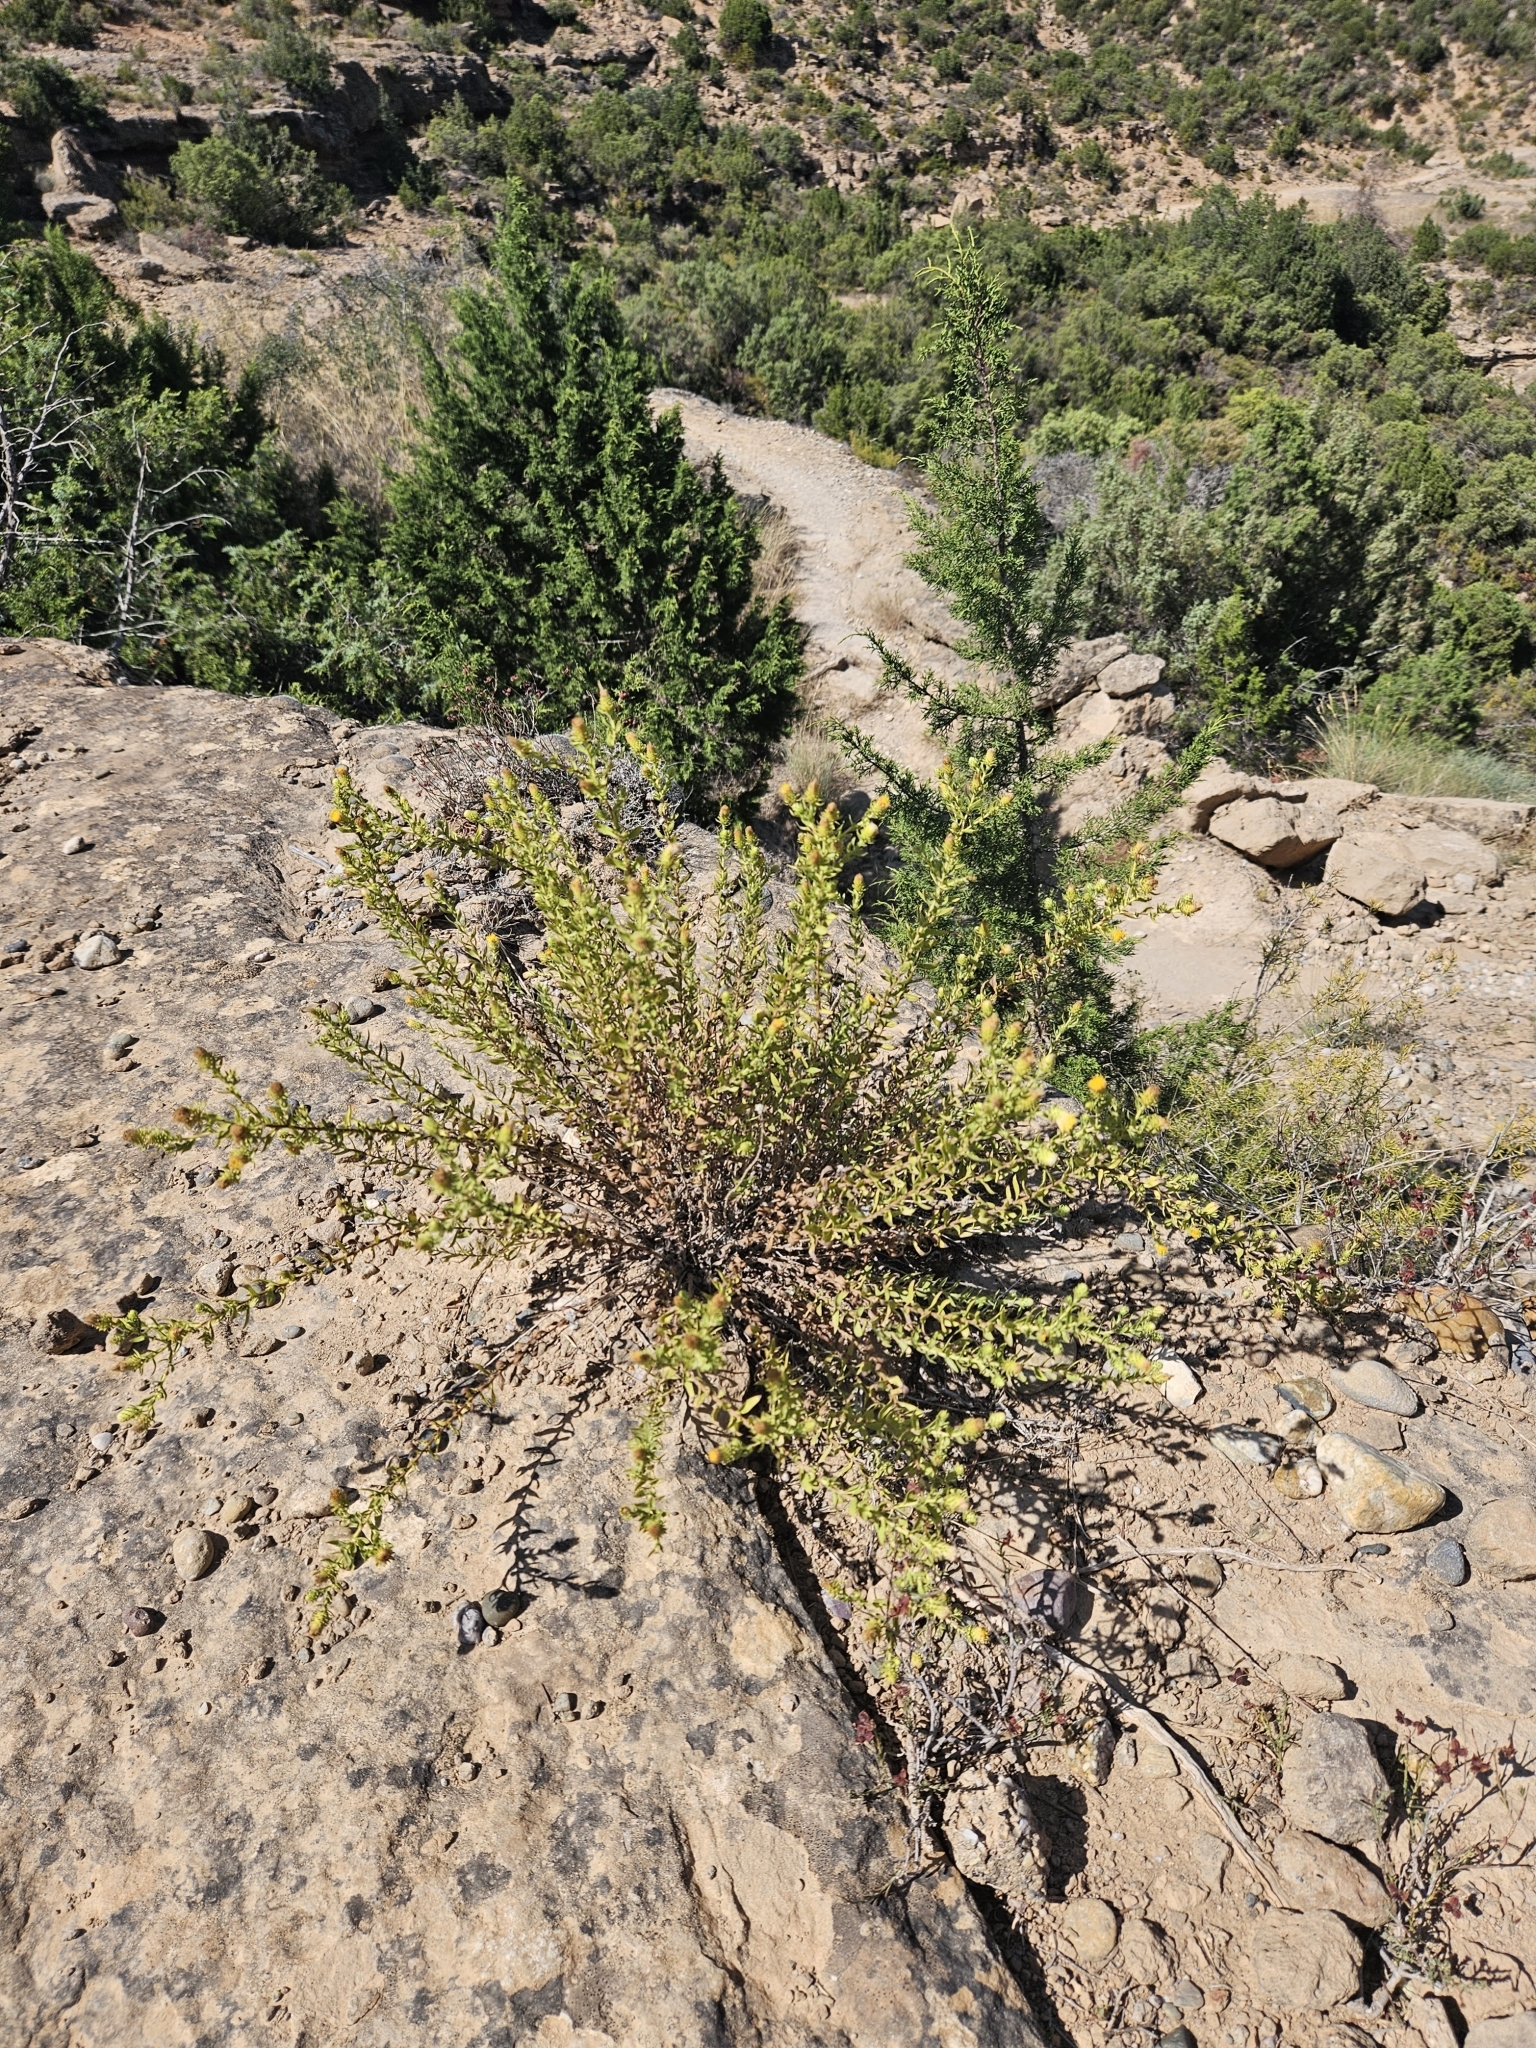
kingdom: Plantae
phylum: Tracheophyta
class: Magnoliopsida
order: Asterales
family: Asteraceae
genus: Chiliadenus
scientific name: Chiliadenus glutinosus
